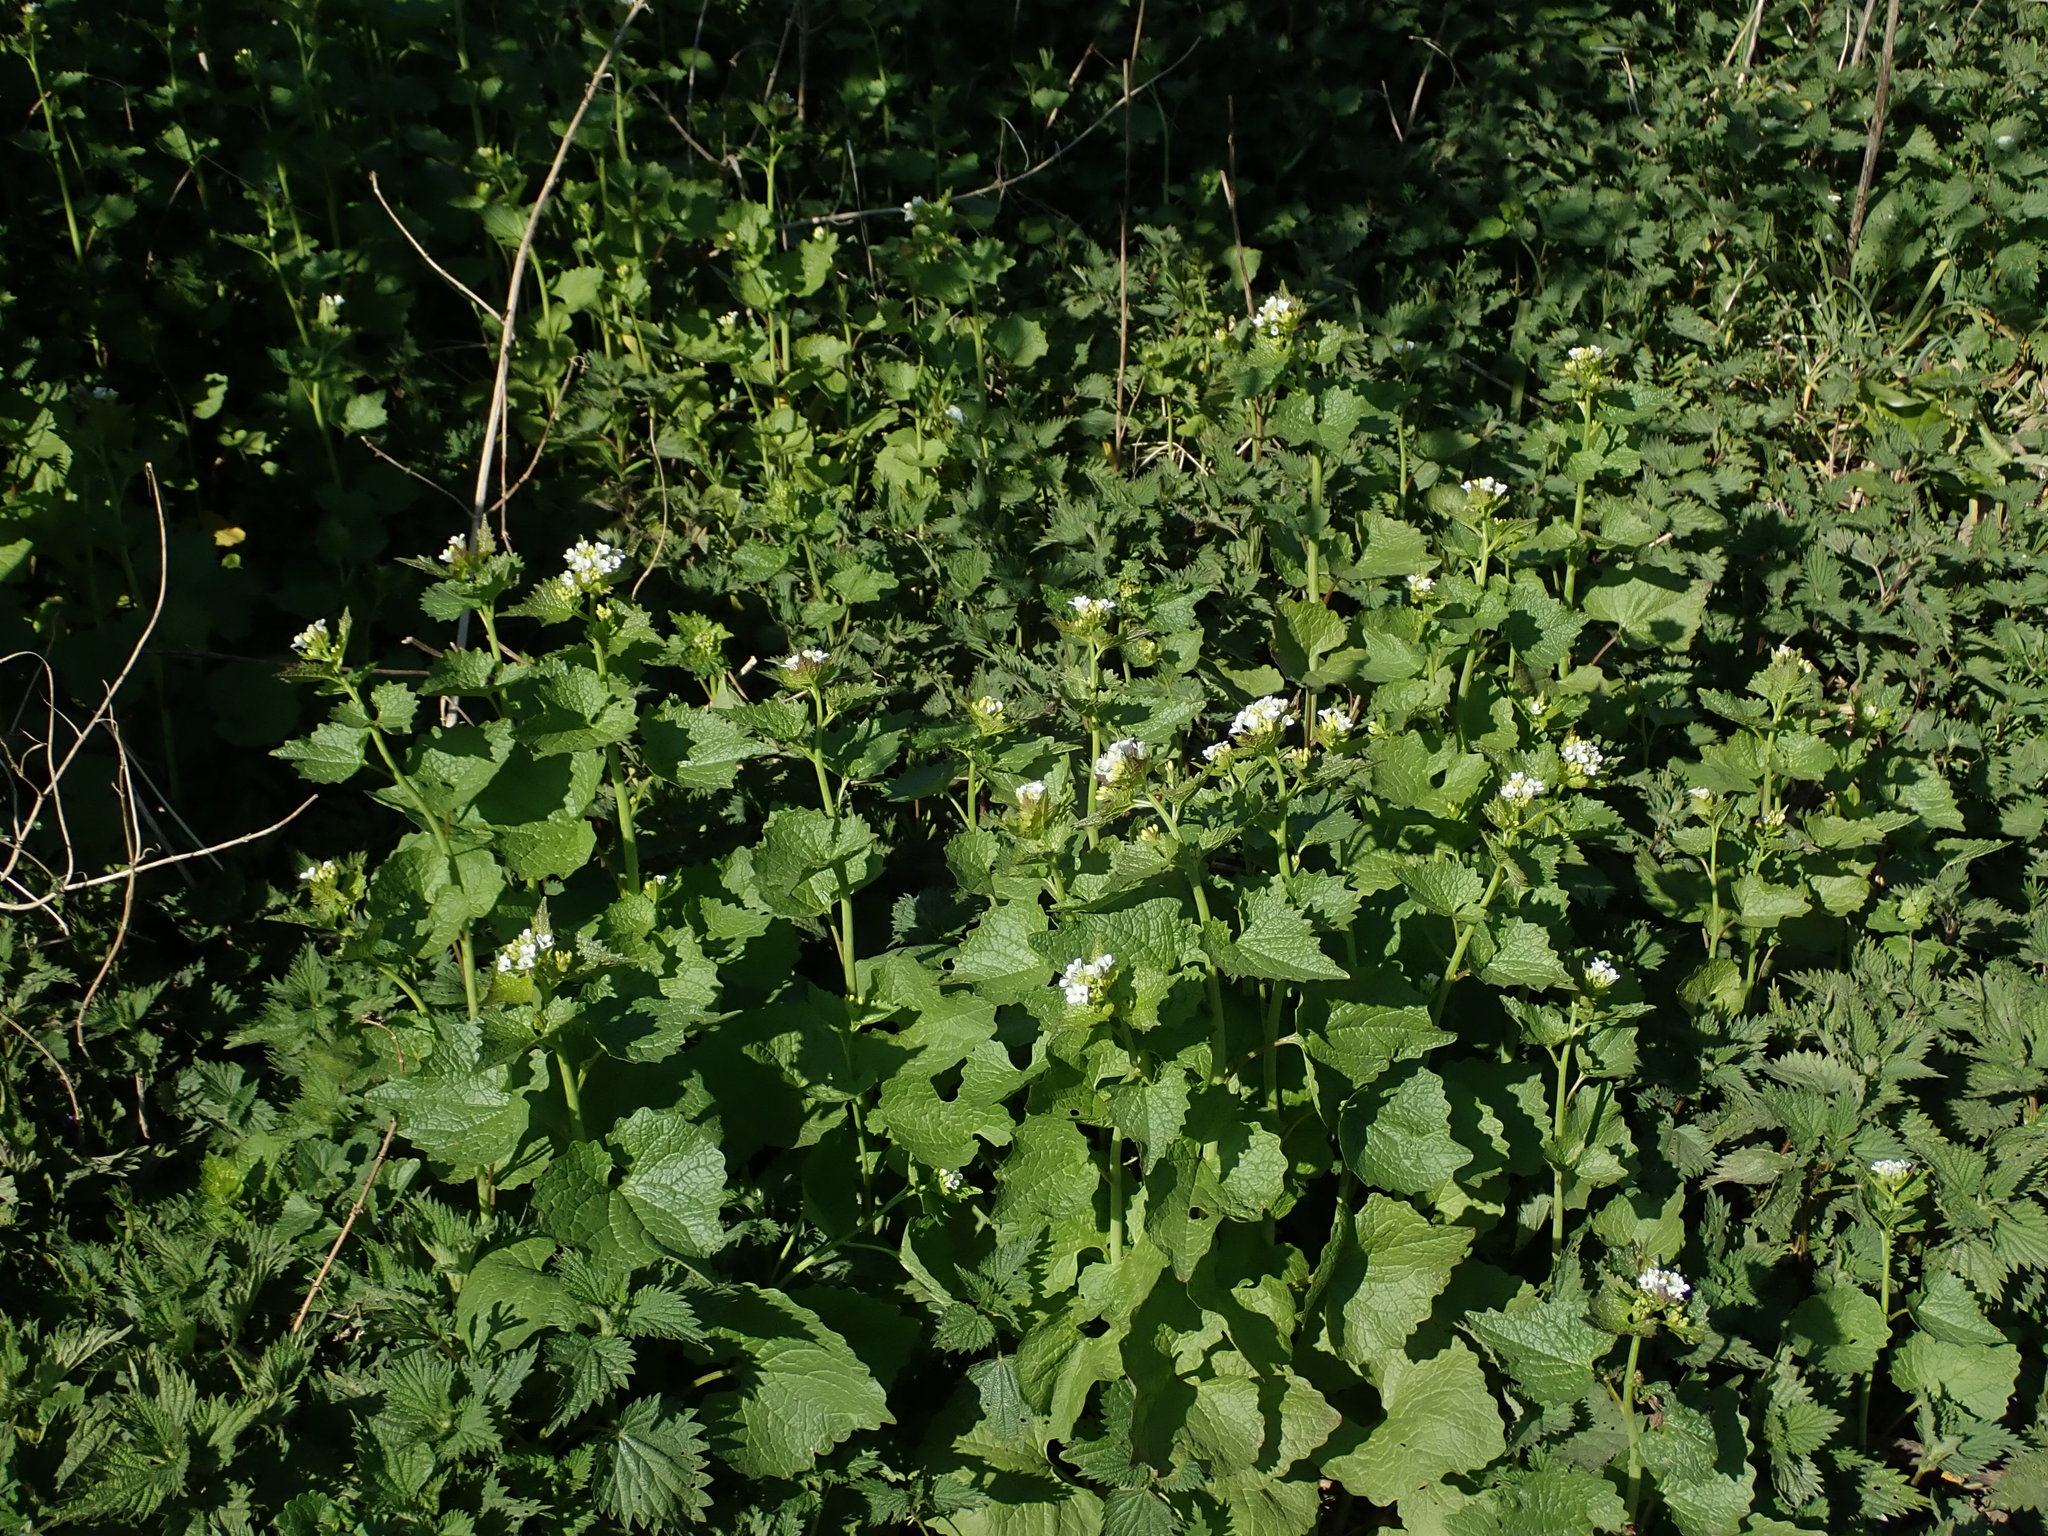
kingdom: Plantae
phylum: Tracheophyta
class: Magnoliopsida
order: Brassicales
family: Brassicaceae
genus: Alliaria
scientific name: Alliaria petiolata
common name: Garlic mustard
